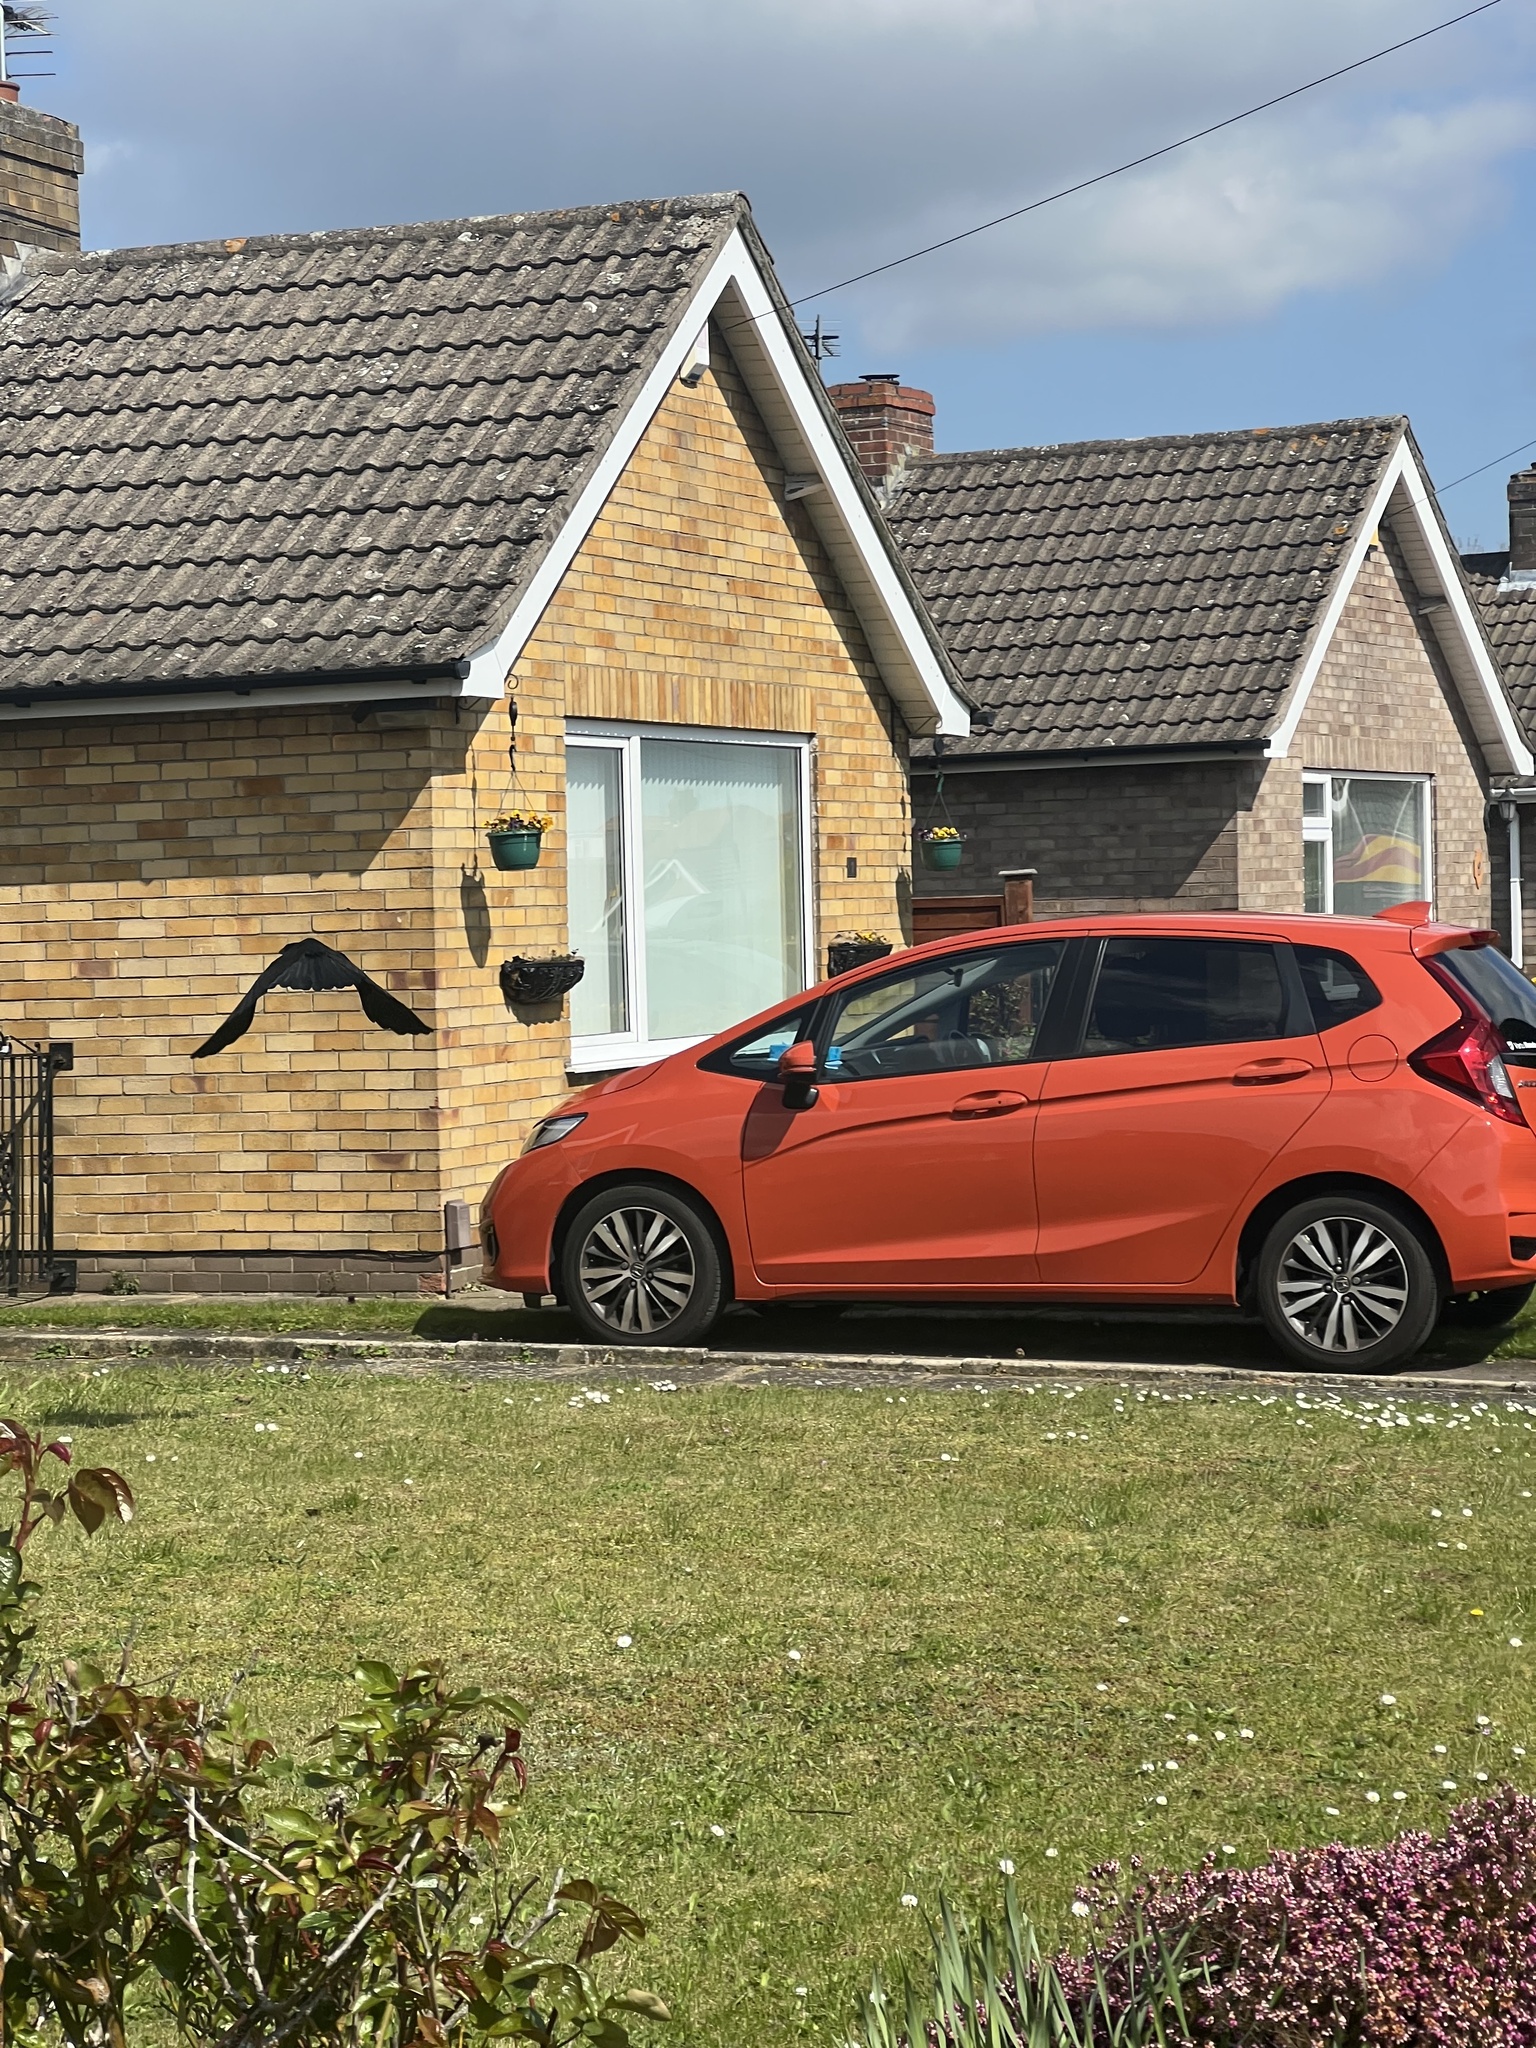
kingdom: Animalia
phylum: Chordata
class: Aves
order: Passeriformes
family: Corvidae
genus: Corvus
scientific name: Corvus corone
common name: Carrion crow
